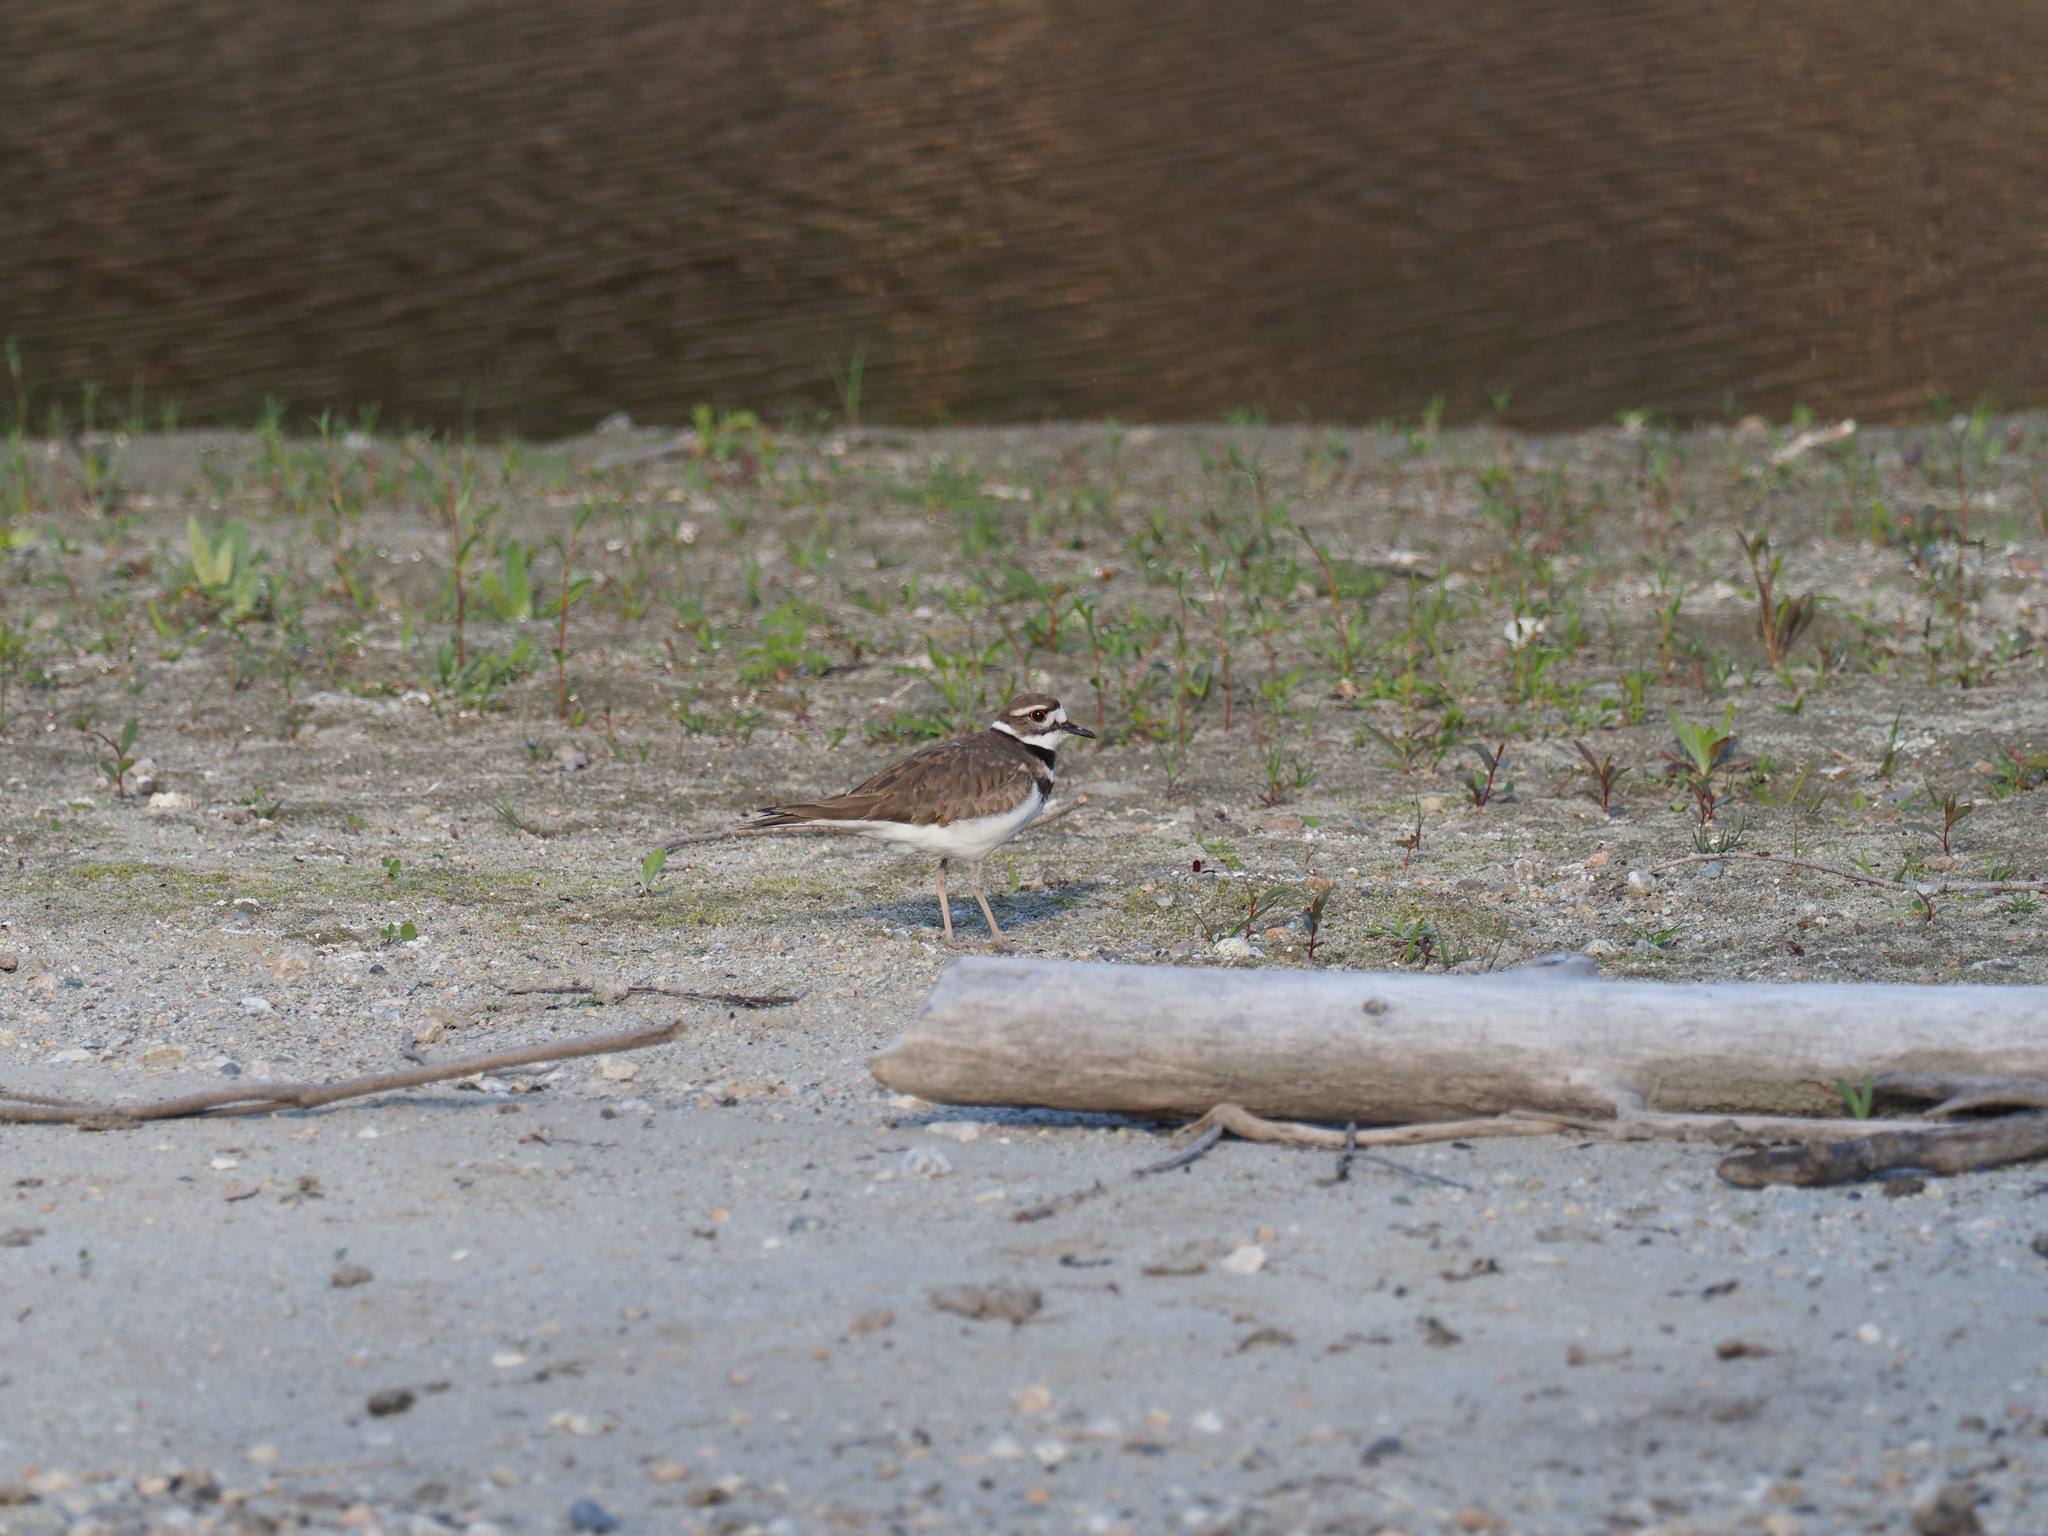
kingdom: Animalia
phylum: Chordata
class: Aves
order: Charadriiformes
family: Charadriidae
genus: Charadrius
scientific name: Charadrius vociferus
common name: Killdeer
